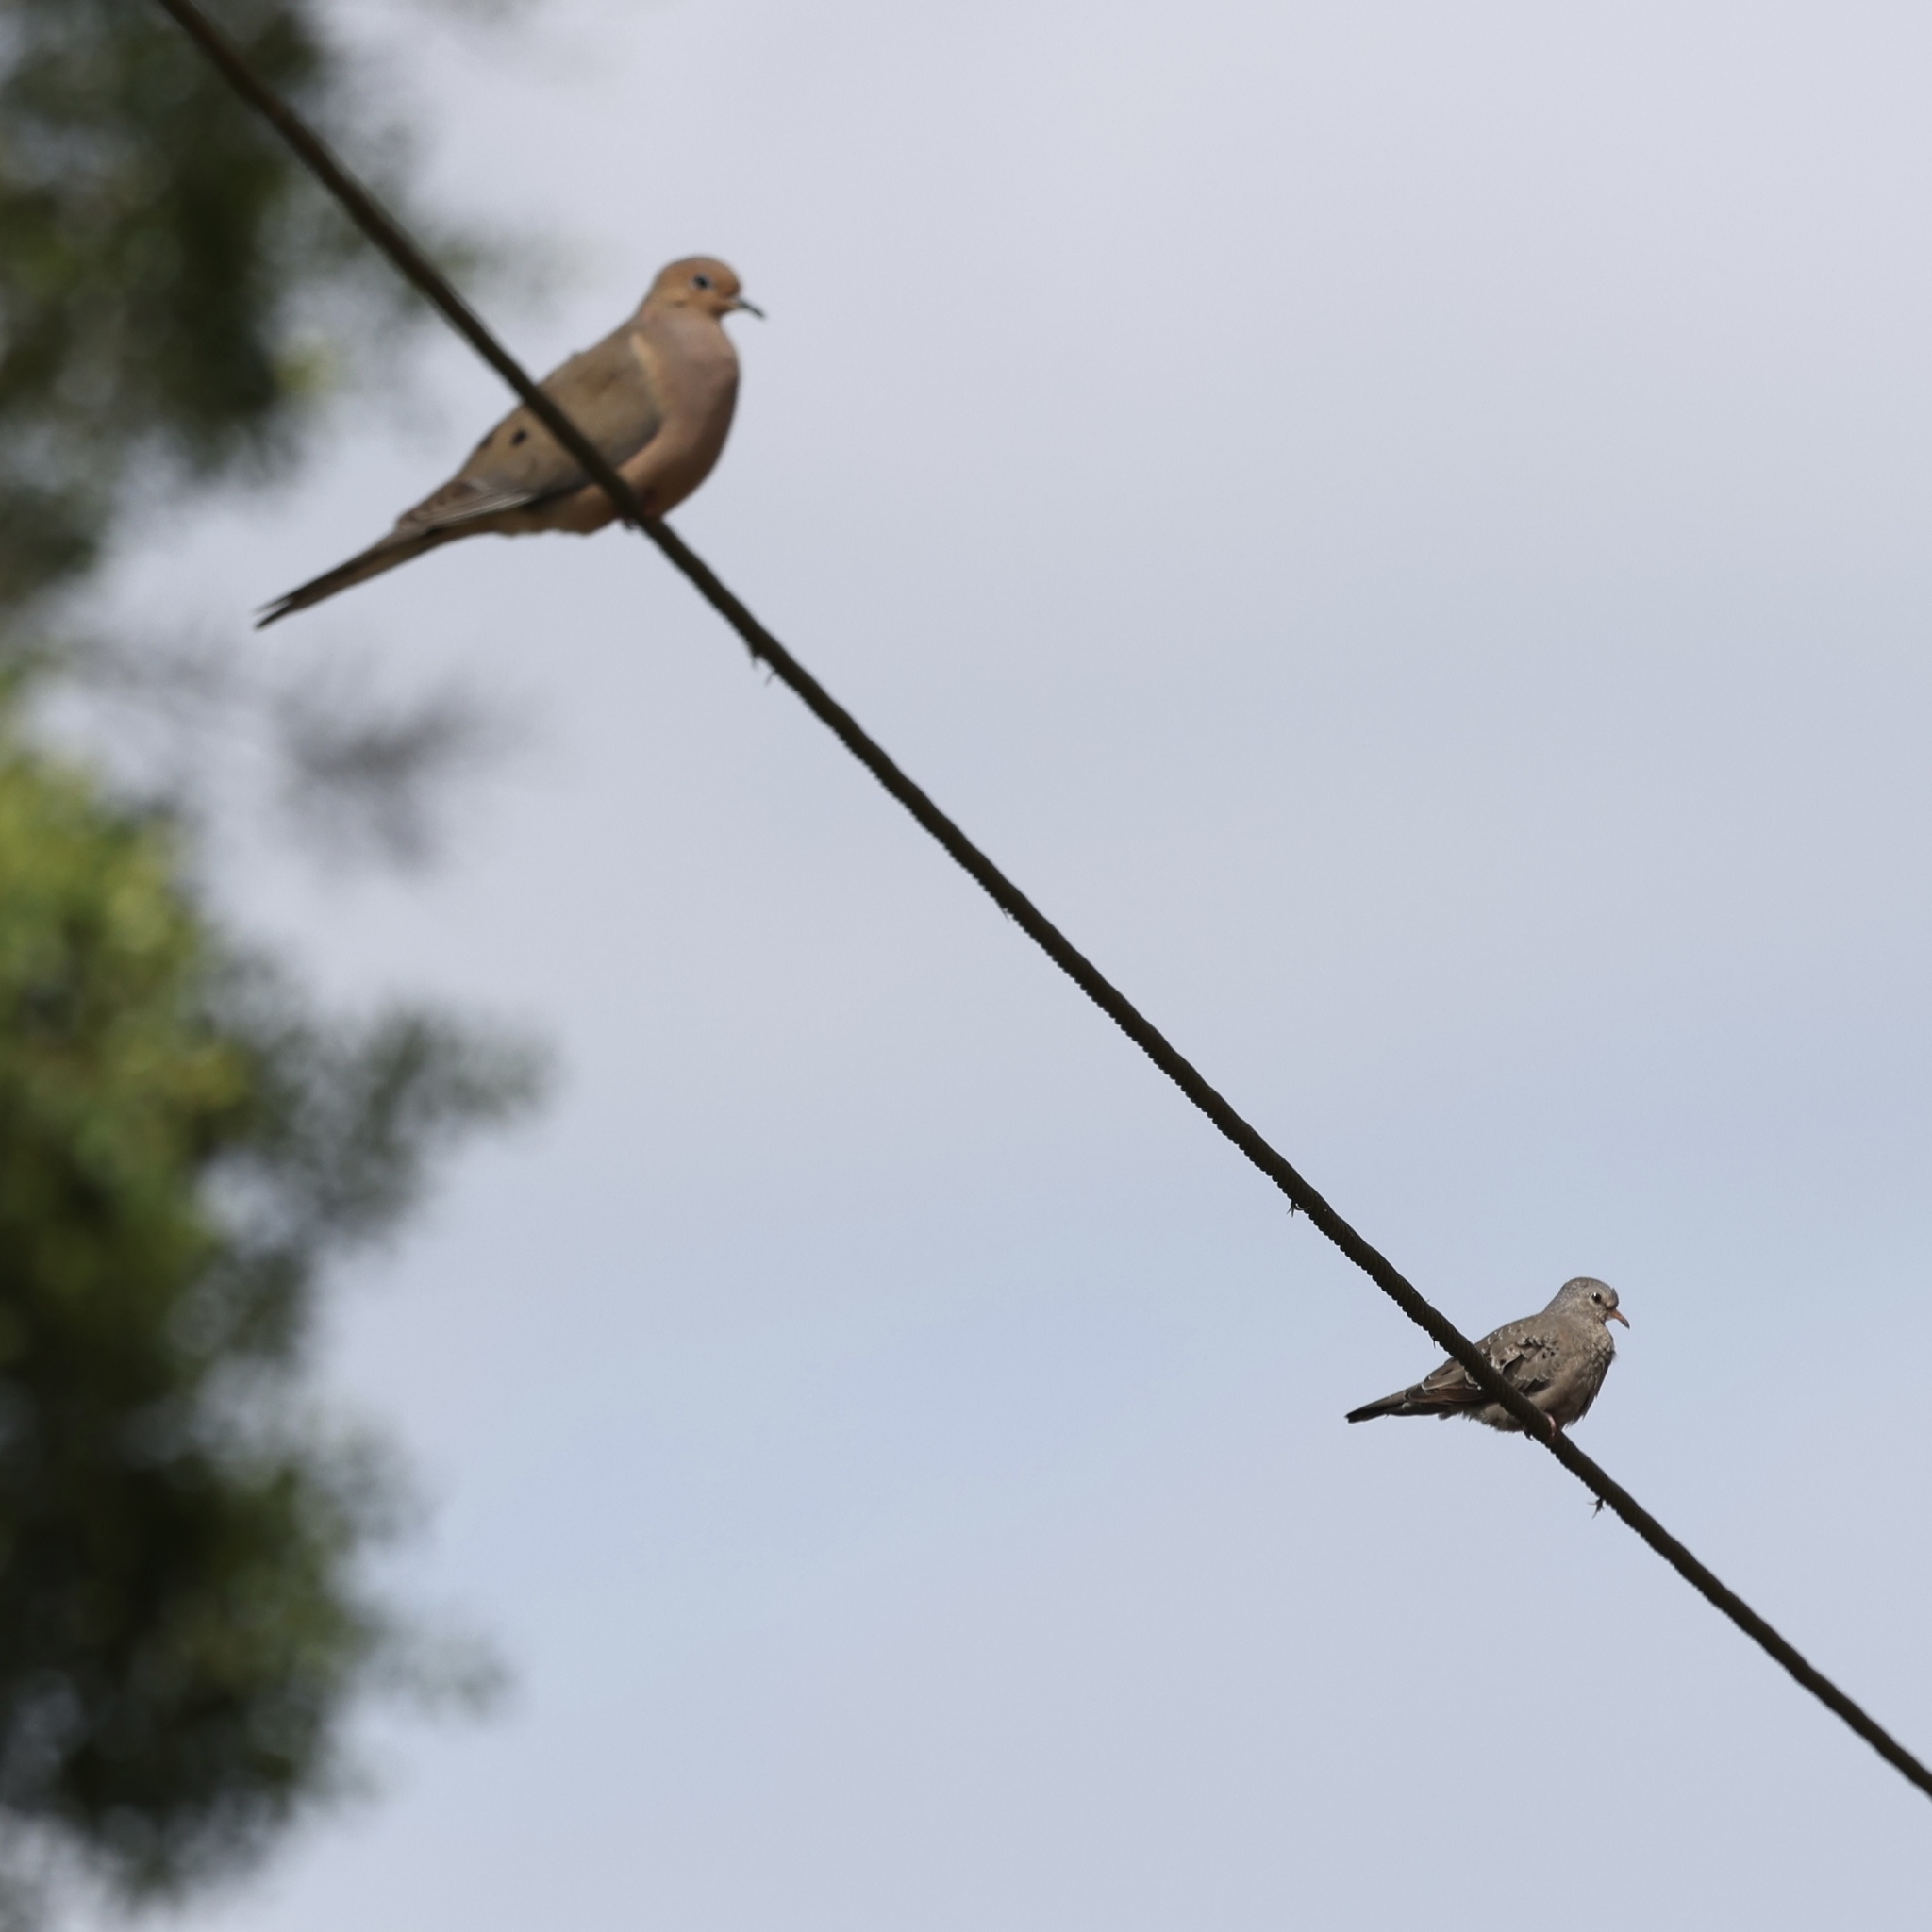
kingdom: Animalia
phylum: Chordata
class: Aves
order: Columbiformes
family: Columbidae
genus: Columbina
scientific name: Columbina passerina
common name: Common ground-dove
